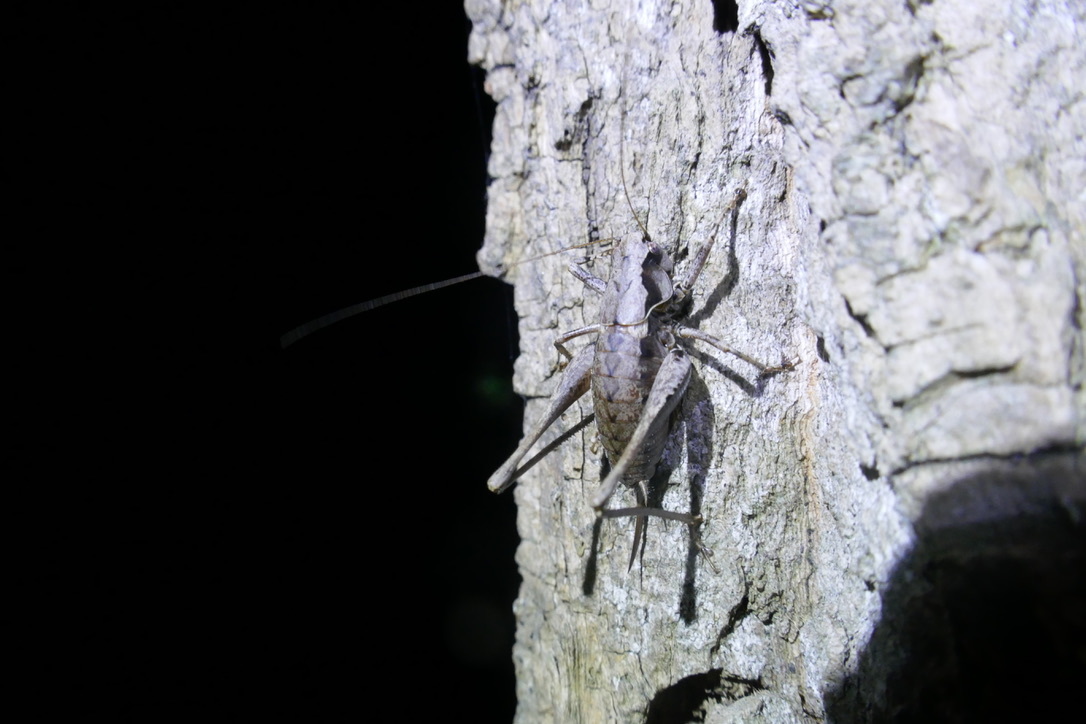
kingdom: Animalia
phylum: Arthropoda
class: Insecta
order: Orthoptera
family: Tettigoniidae
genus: Pholidoptera
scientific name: Pholidoptera griseoaptera
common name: Dark bush-cricket
